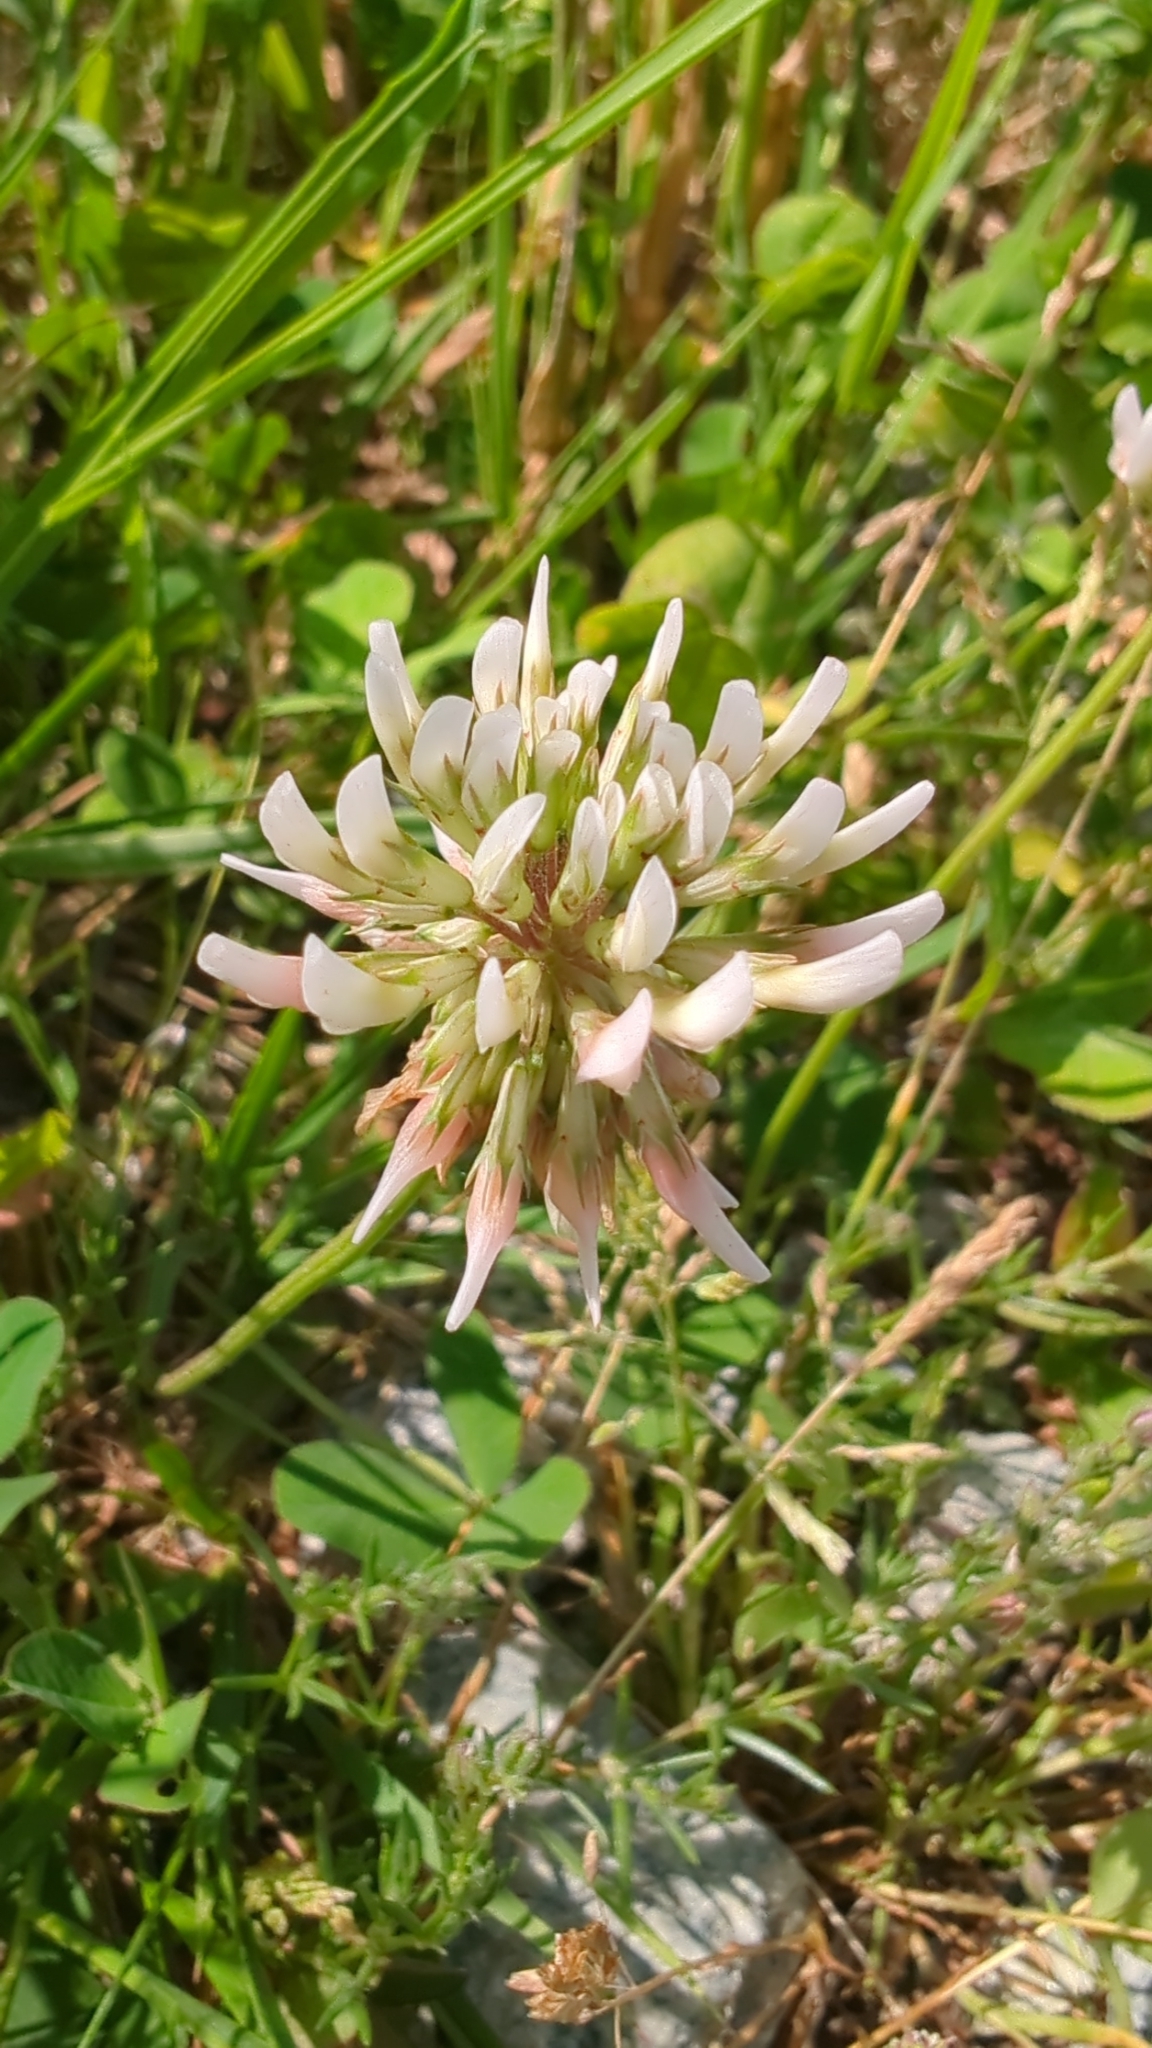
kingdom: Plantae
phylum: Tracheophyta
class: Magnoliopsida
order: Fabales
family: Fabaceae
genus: Trifolium
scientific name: Trifolium repens
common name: White clover
